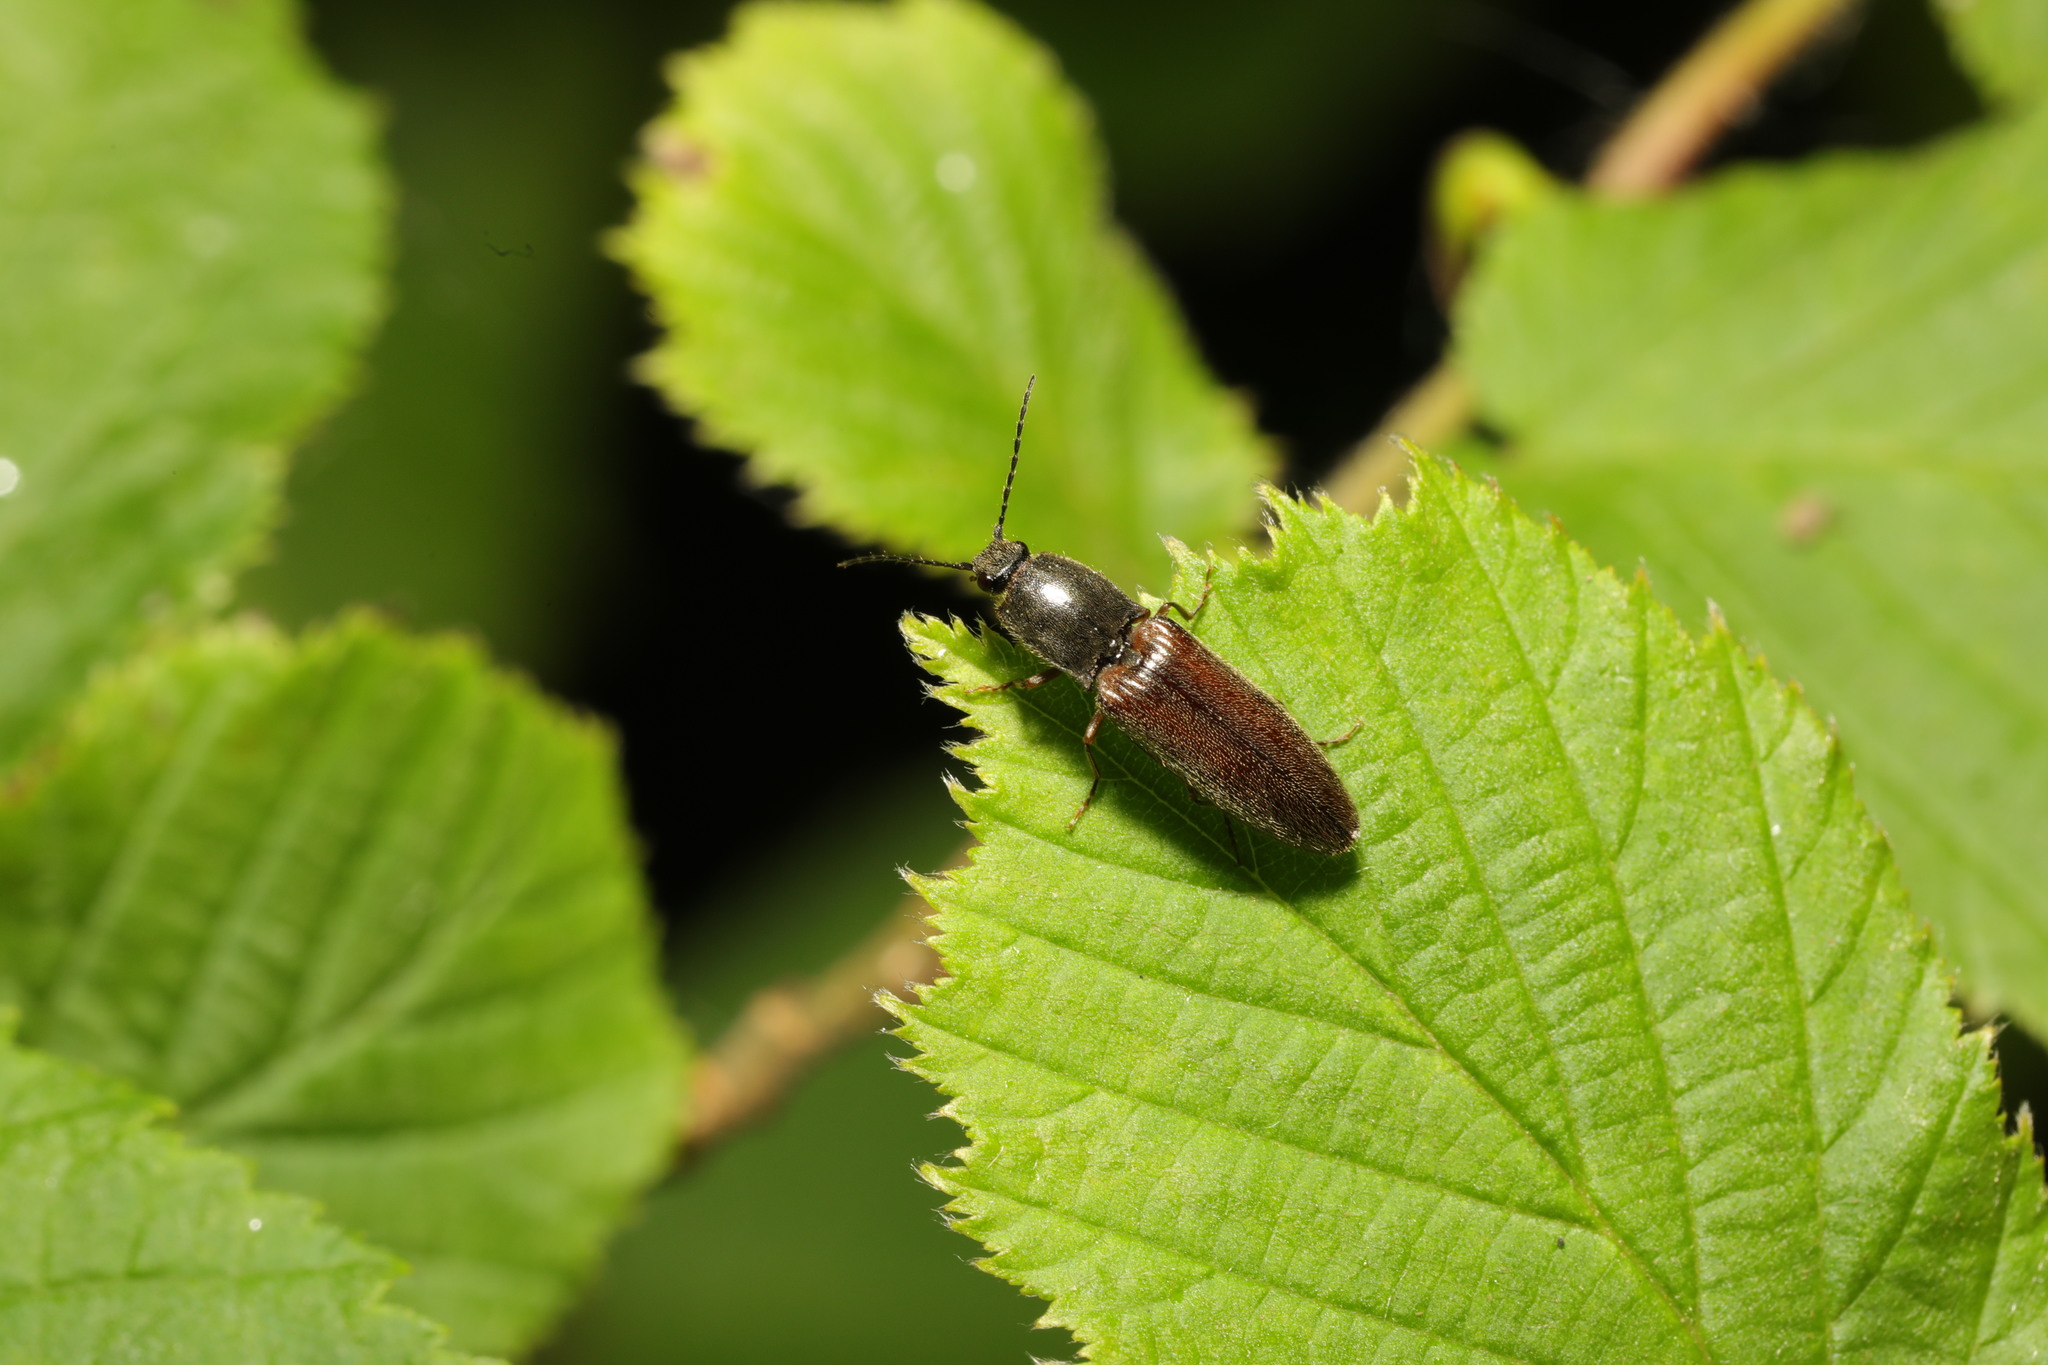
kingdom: Animalia
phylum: Arthropoda
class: Insecta
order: Coleoptera
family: Elateridae
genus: Athous
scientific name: Athous haemorrhoidalis
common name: Red-brown click beetle
